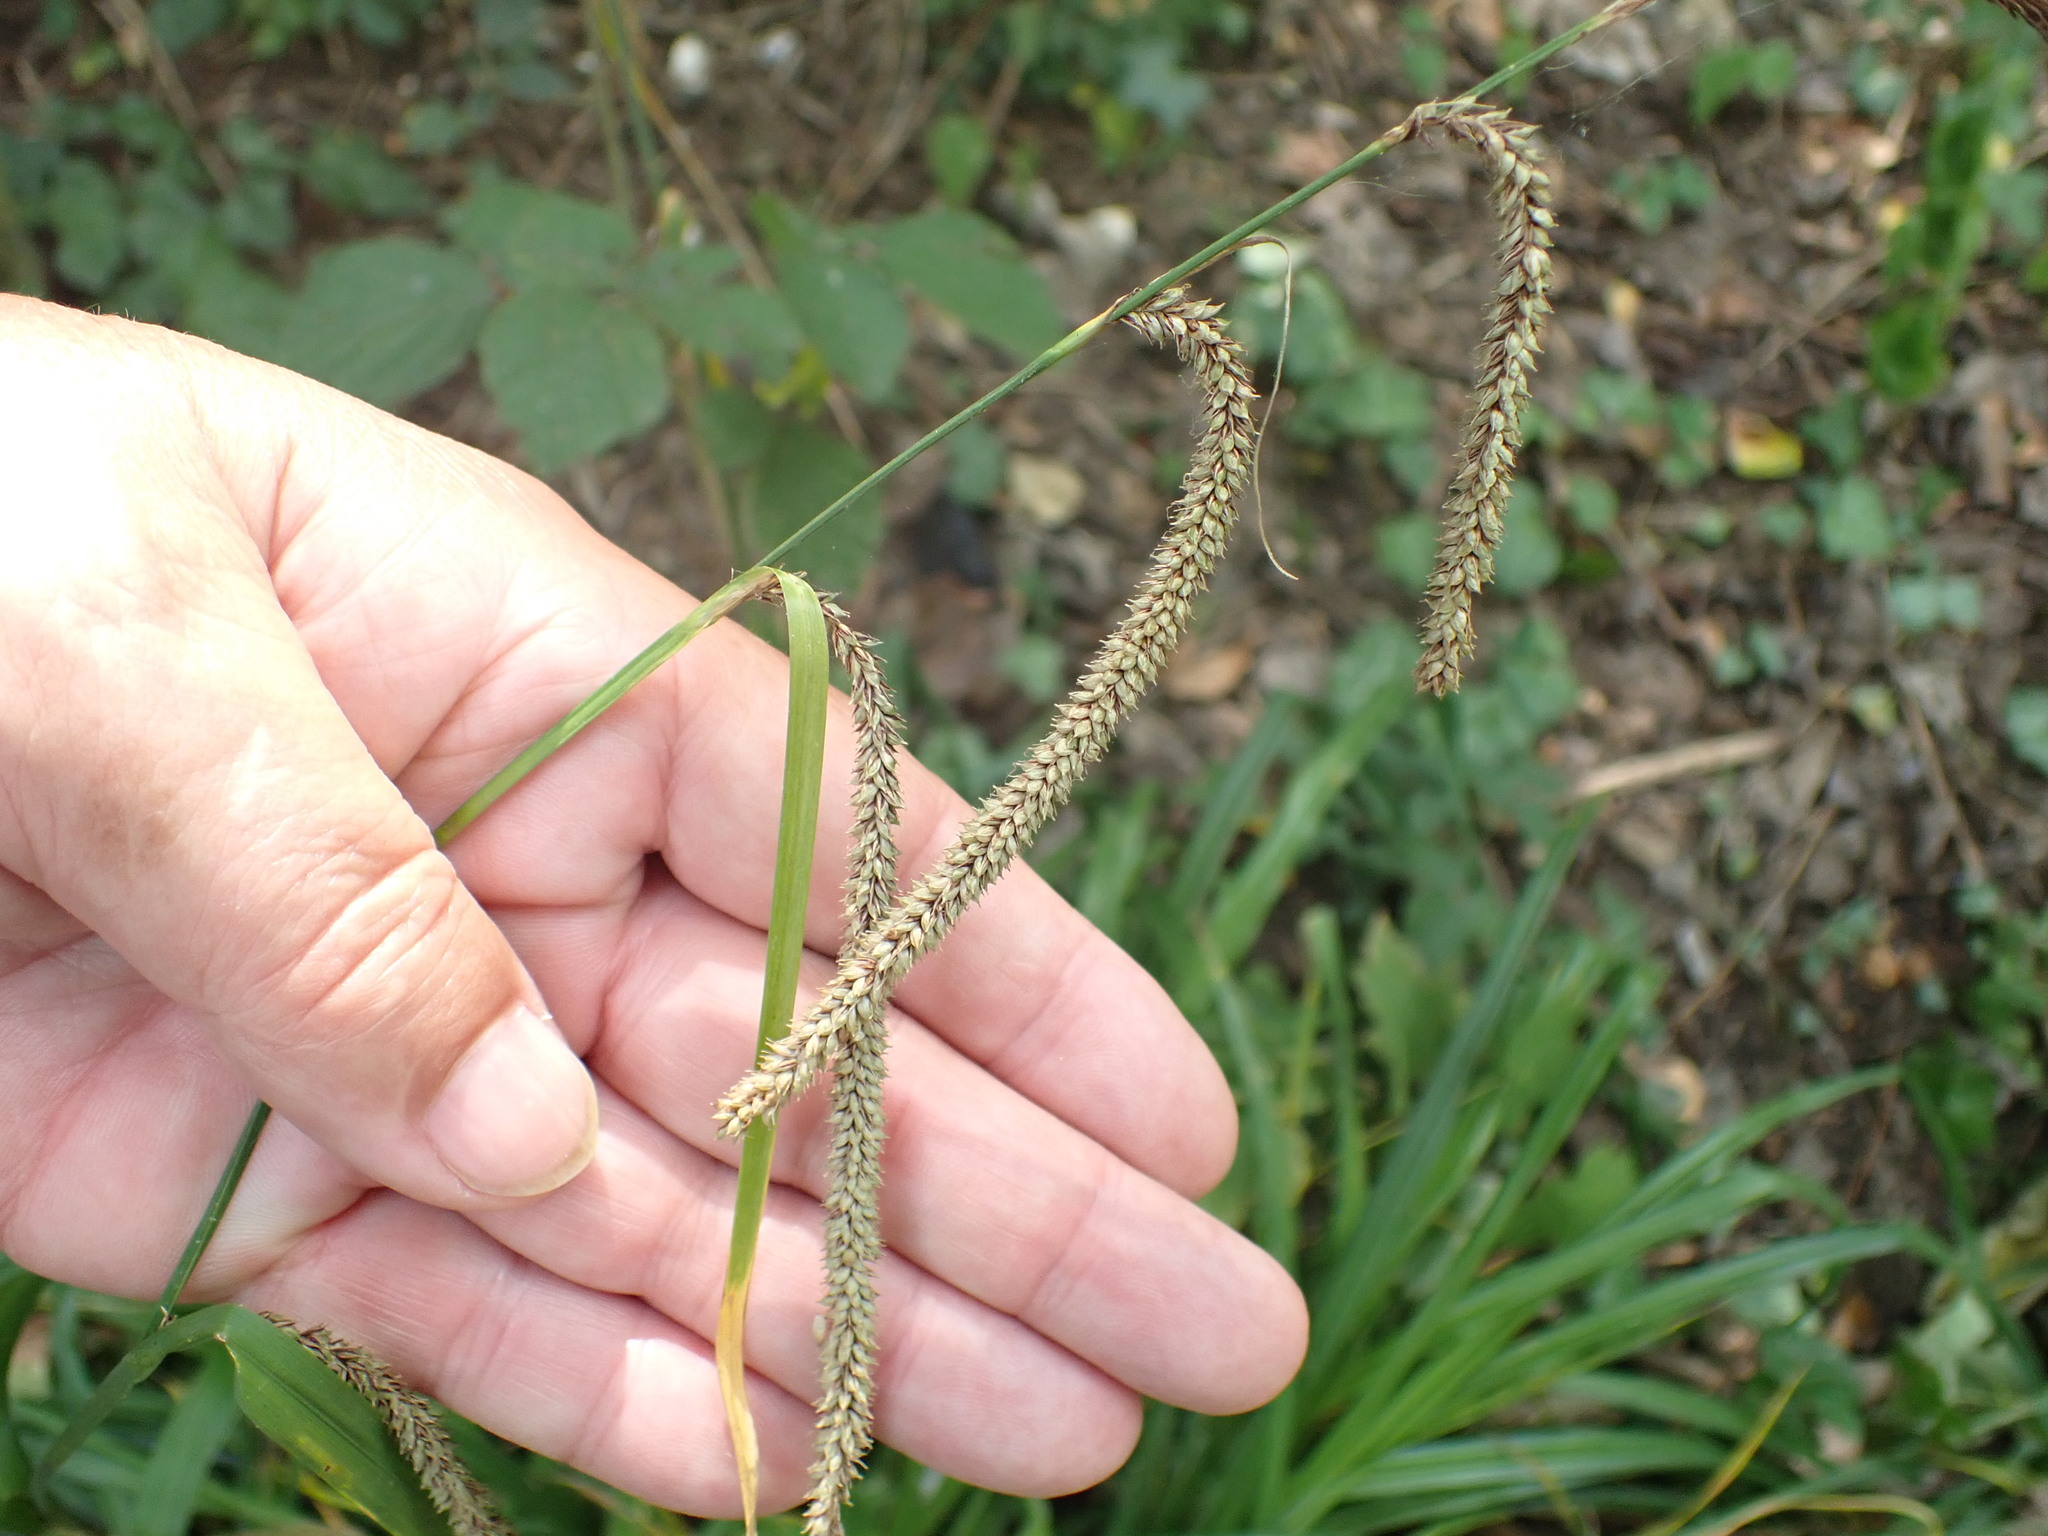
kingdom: Plantae
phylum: Tracheophyta
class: Liliopsida
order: Poales
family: Cyperaceae
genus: Carex
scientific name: Carex pendula
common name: Pendulous sedge
